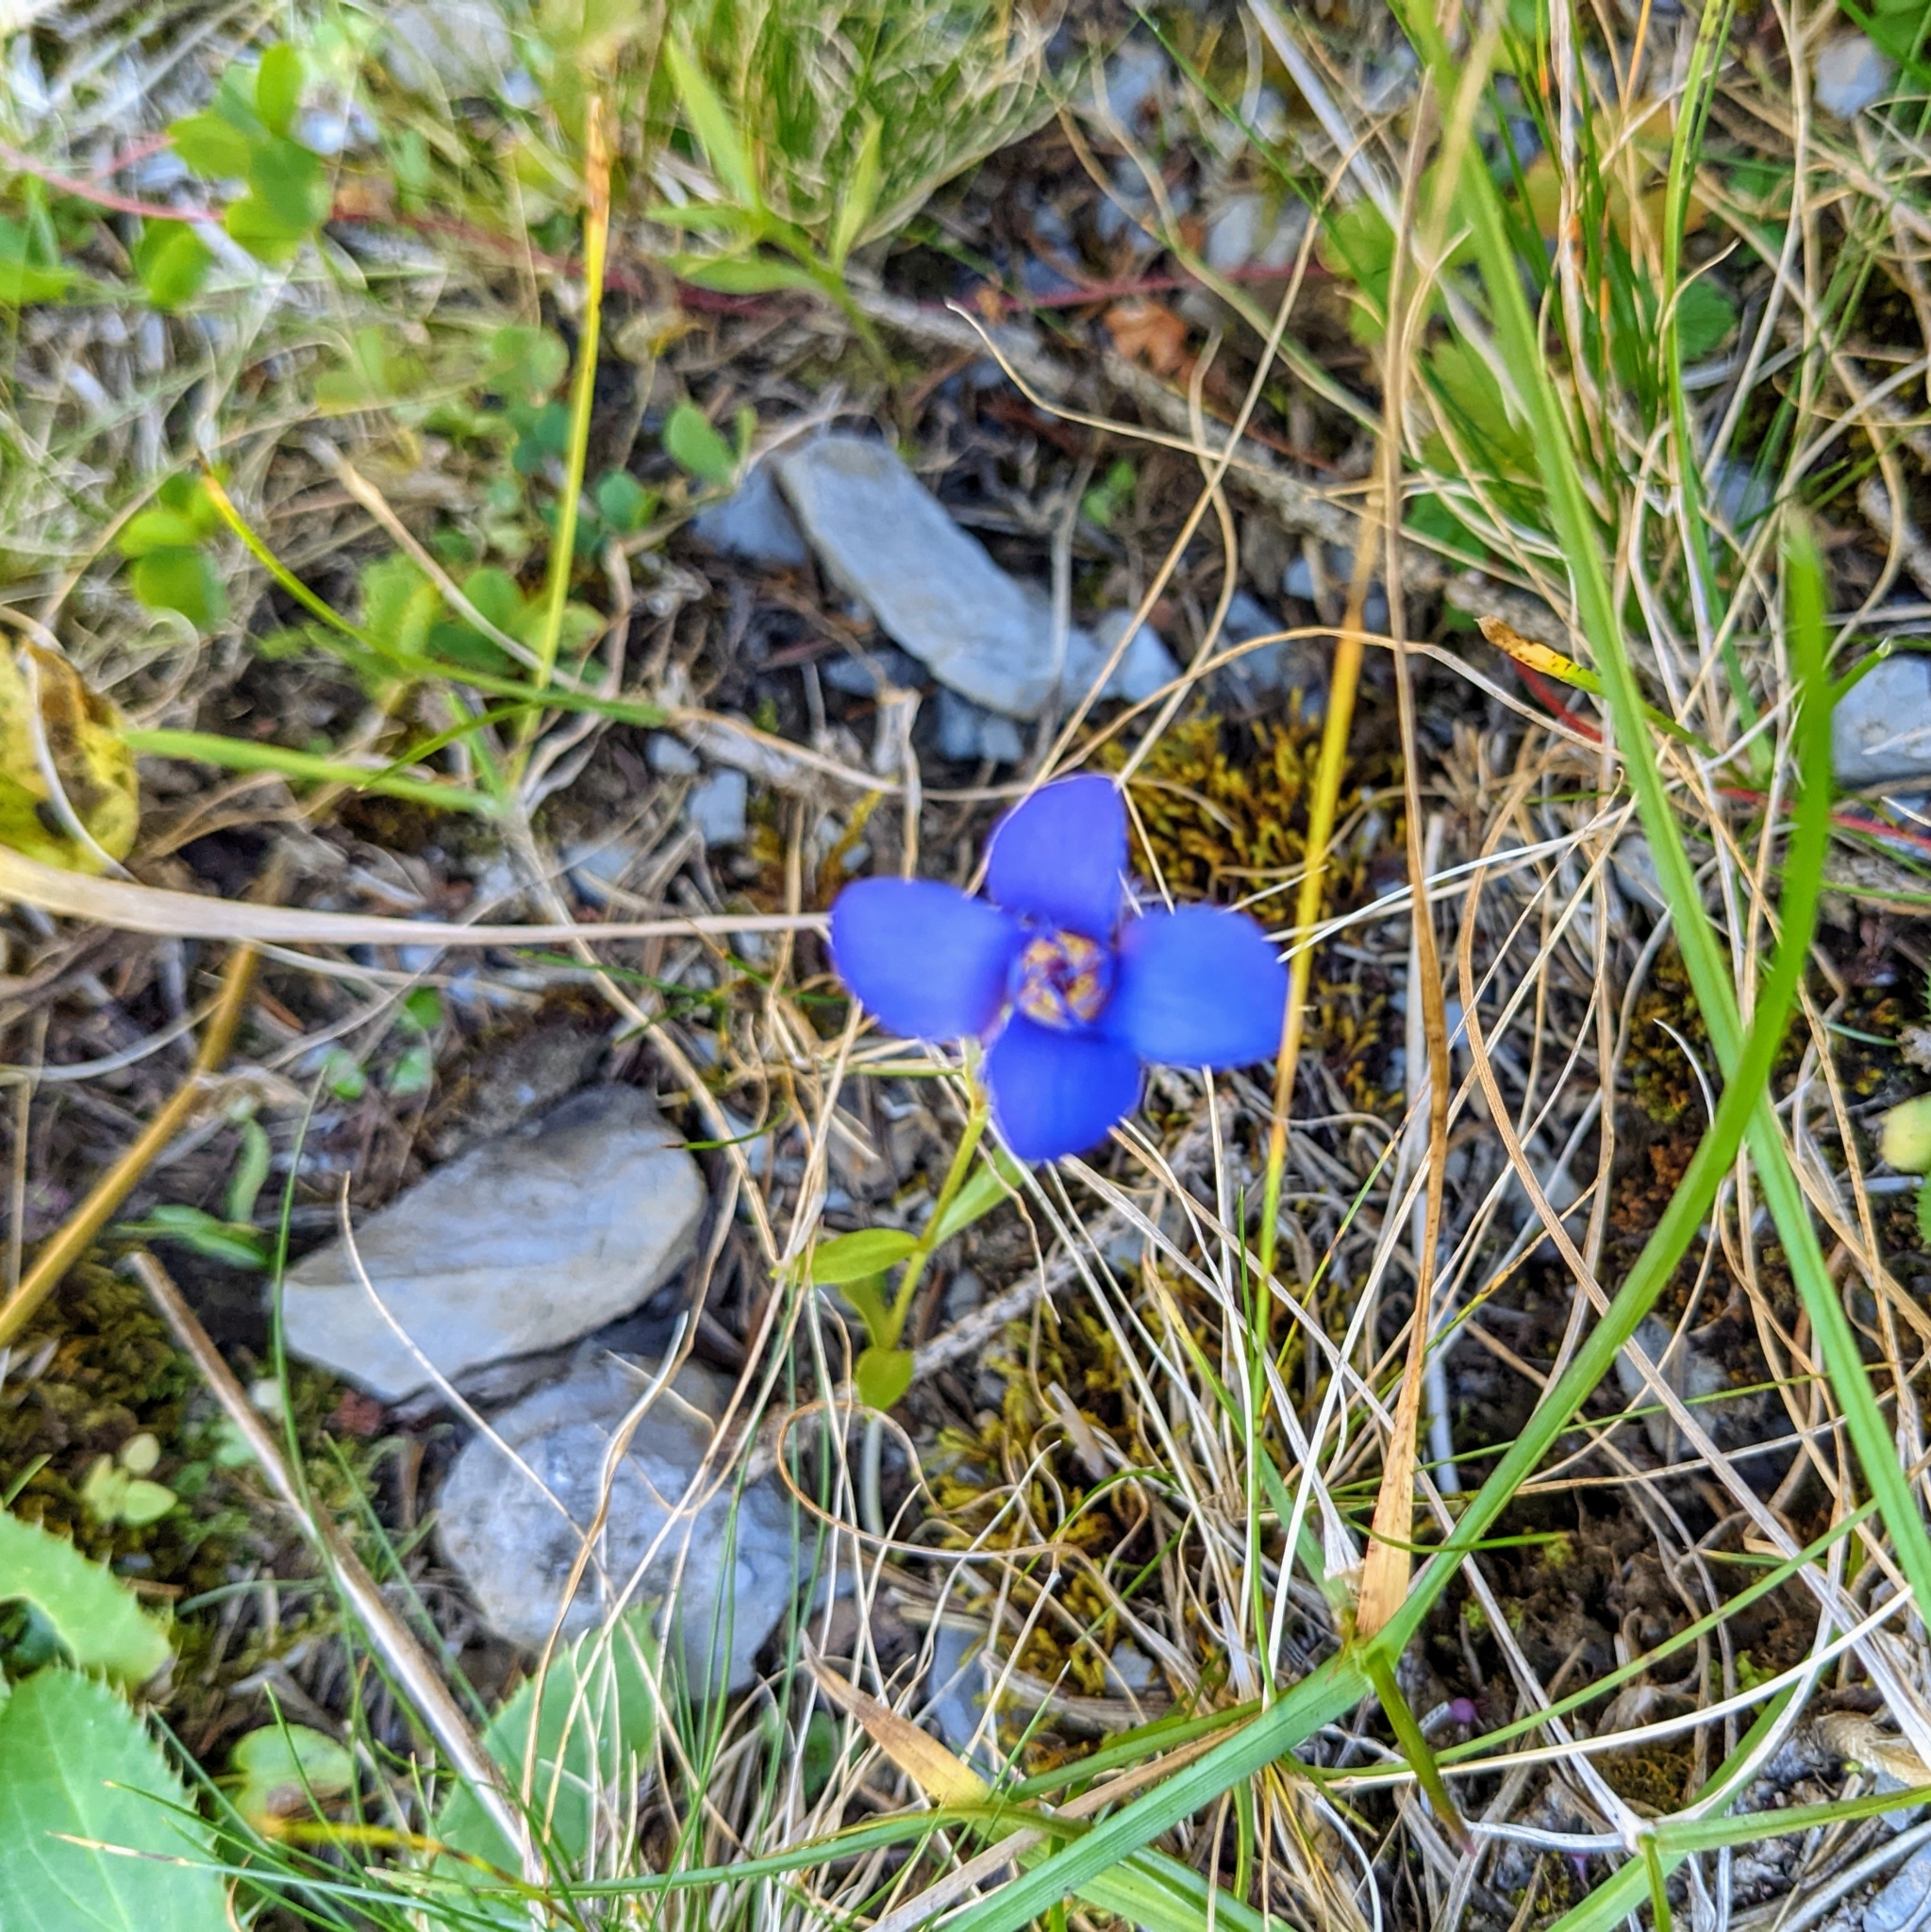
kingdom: Plantae
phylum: Tracheophyta
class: Magnoliopsida
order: Gentianales
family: Gentianaceae
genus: Gentianopsis
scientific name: Gentianopsis ciliata
